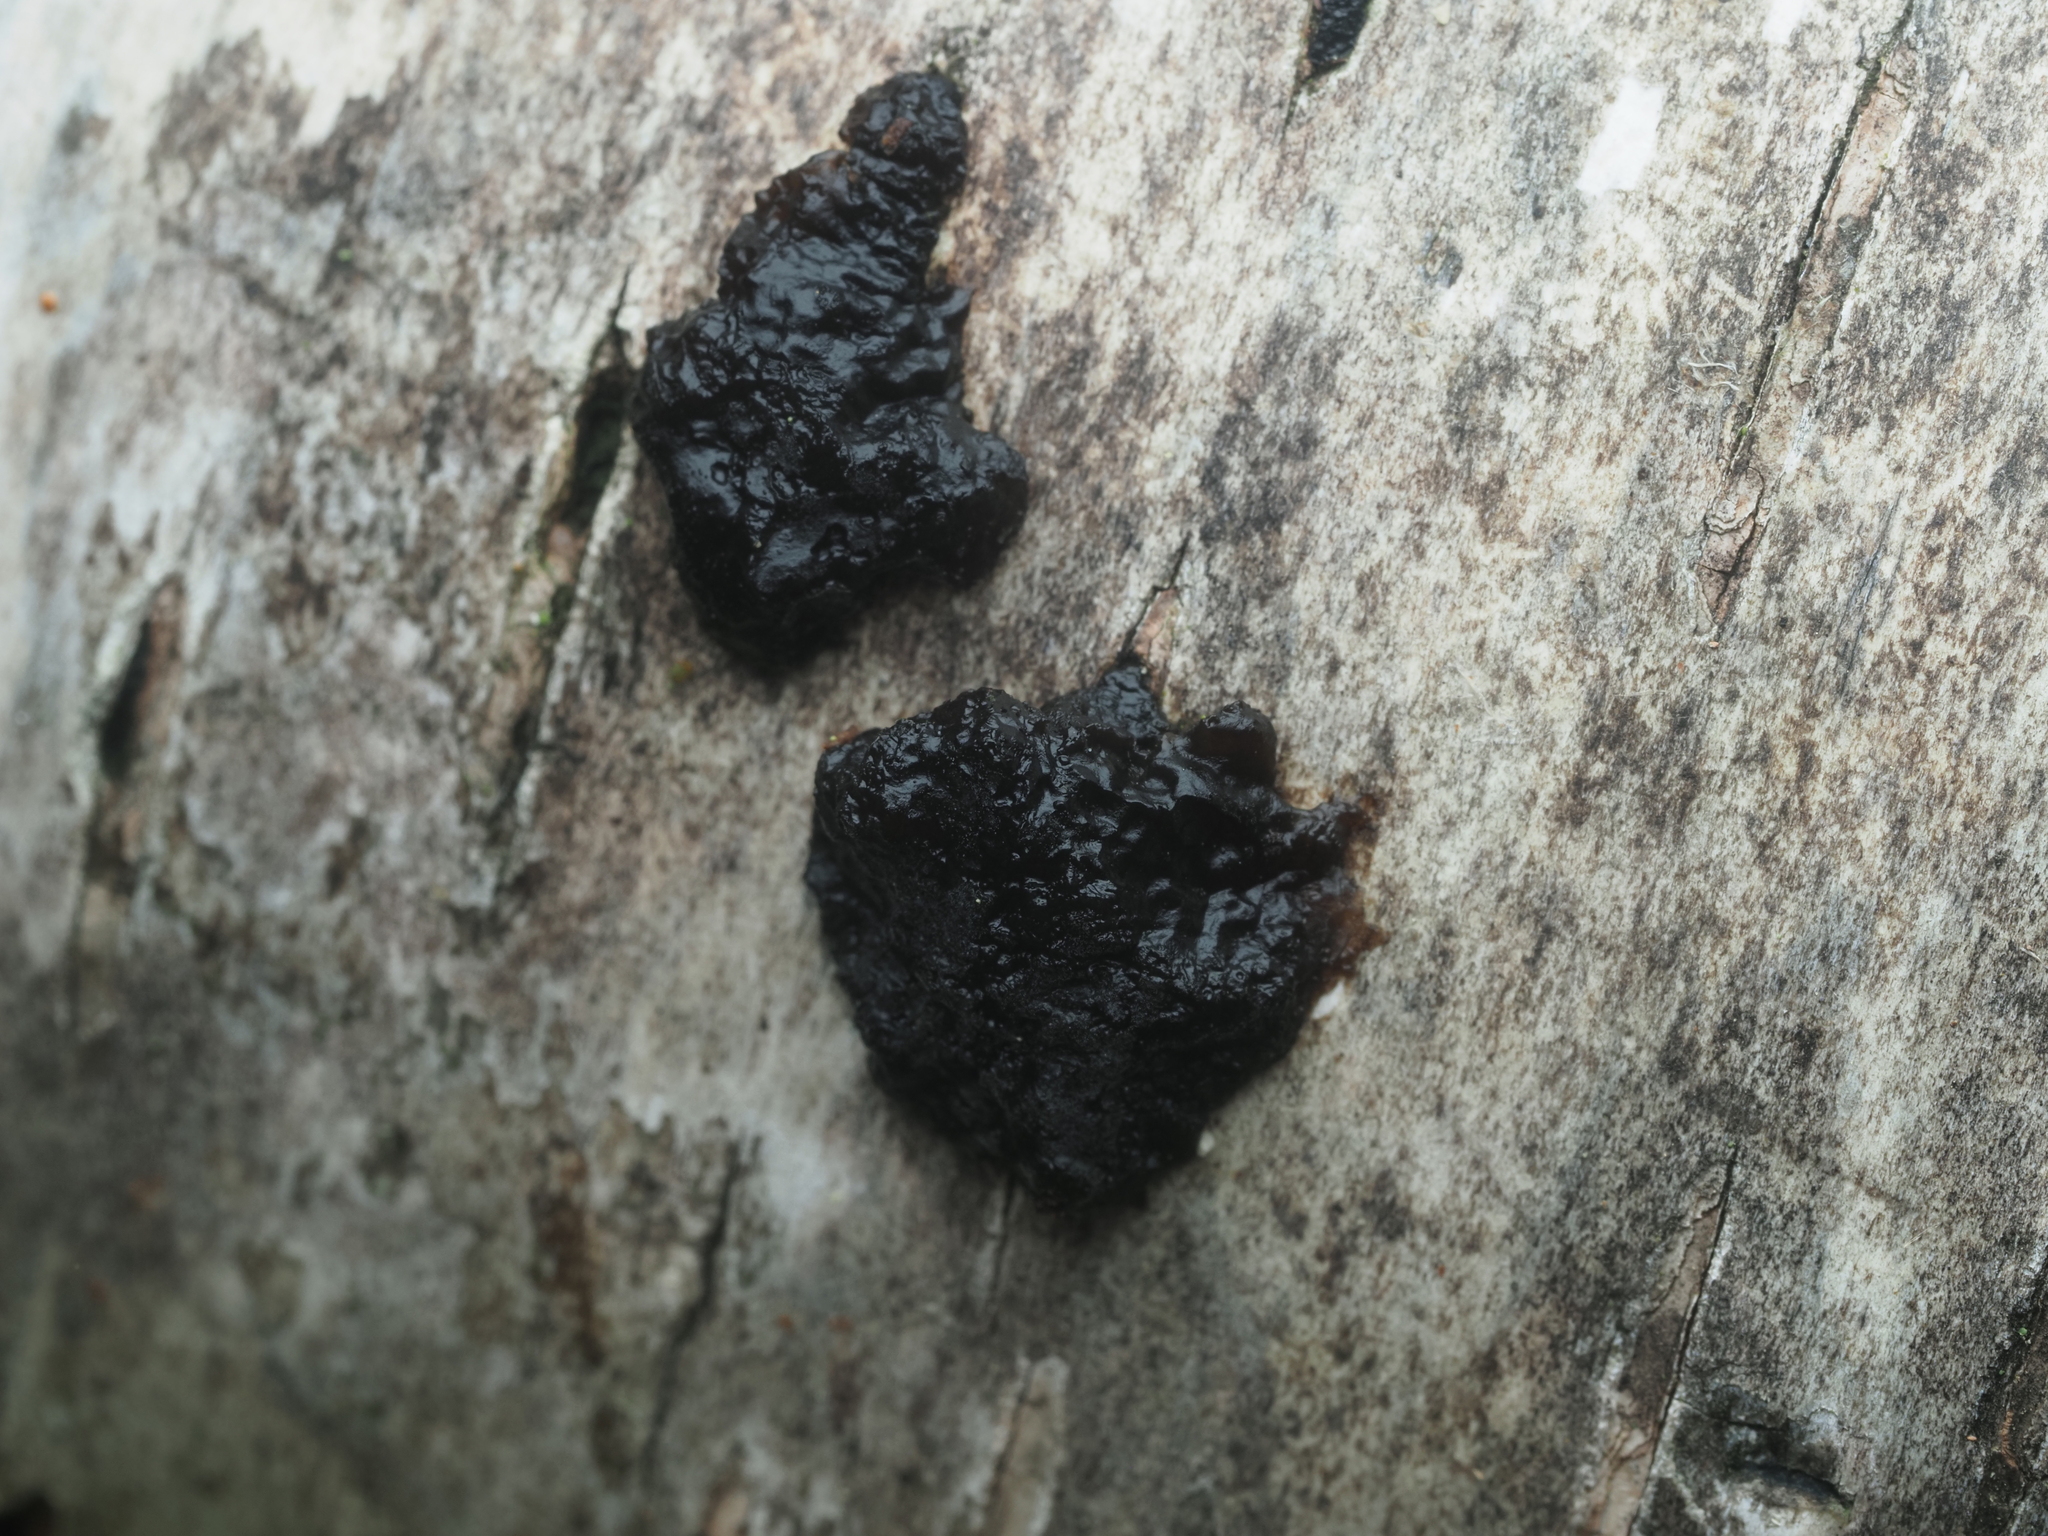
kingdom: Fungi
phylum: Basidiomycota
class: Agaricomycetes
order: Auriculariales
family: Auriculariaceae
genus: Exidia
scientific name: Exidia nigricans
